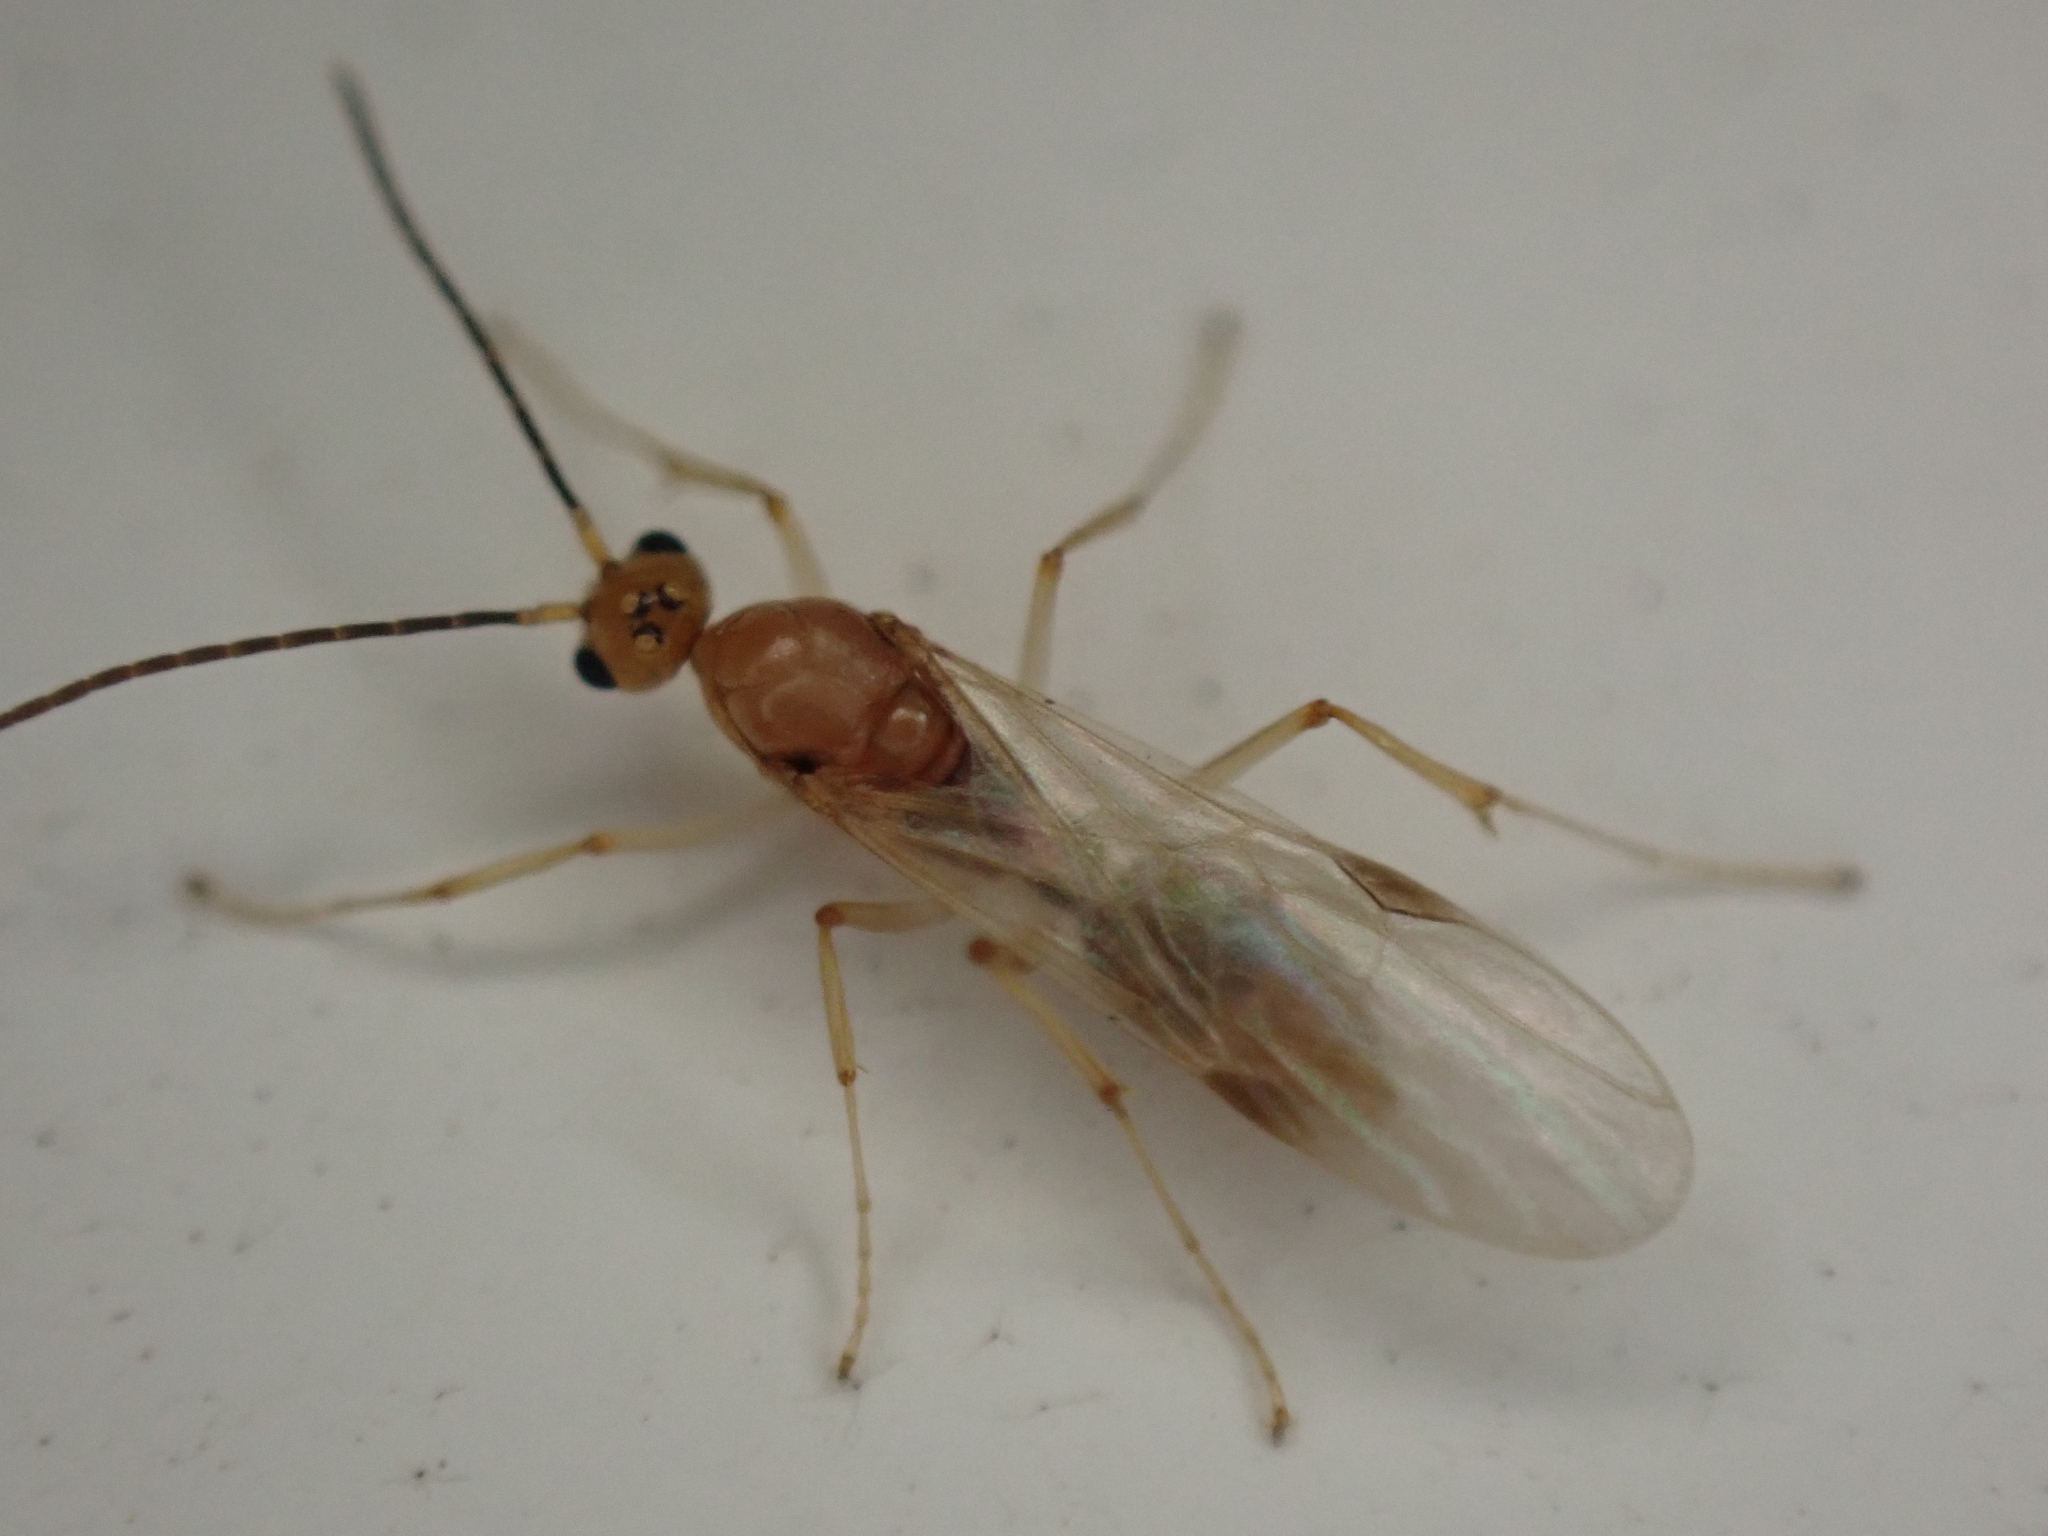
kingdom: Animalia
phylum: Arthropoda
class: Insecta
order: Hymenoptera
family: Formicidae
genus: Pachycondyla
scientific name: Pachycondyla chinensis
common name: Asian needle ant
